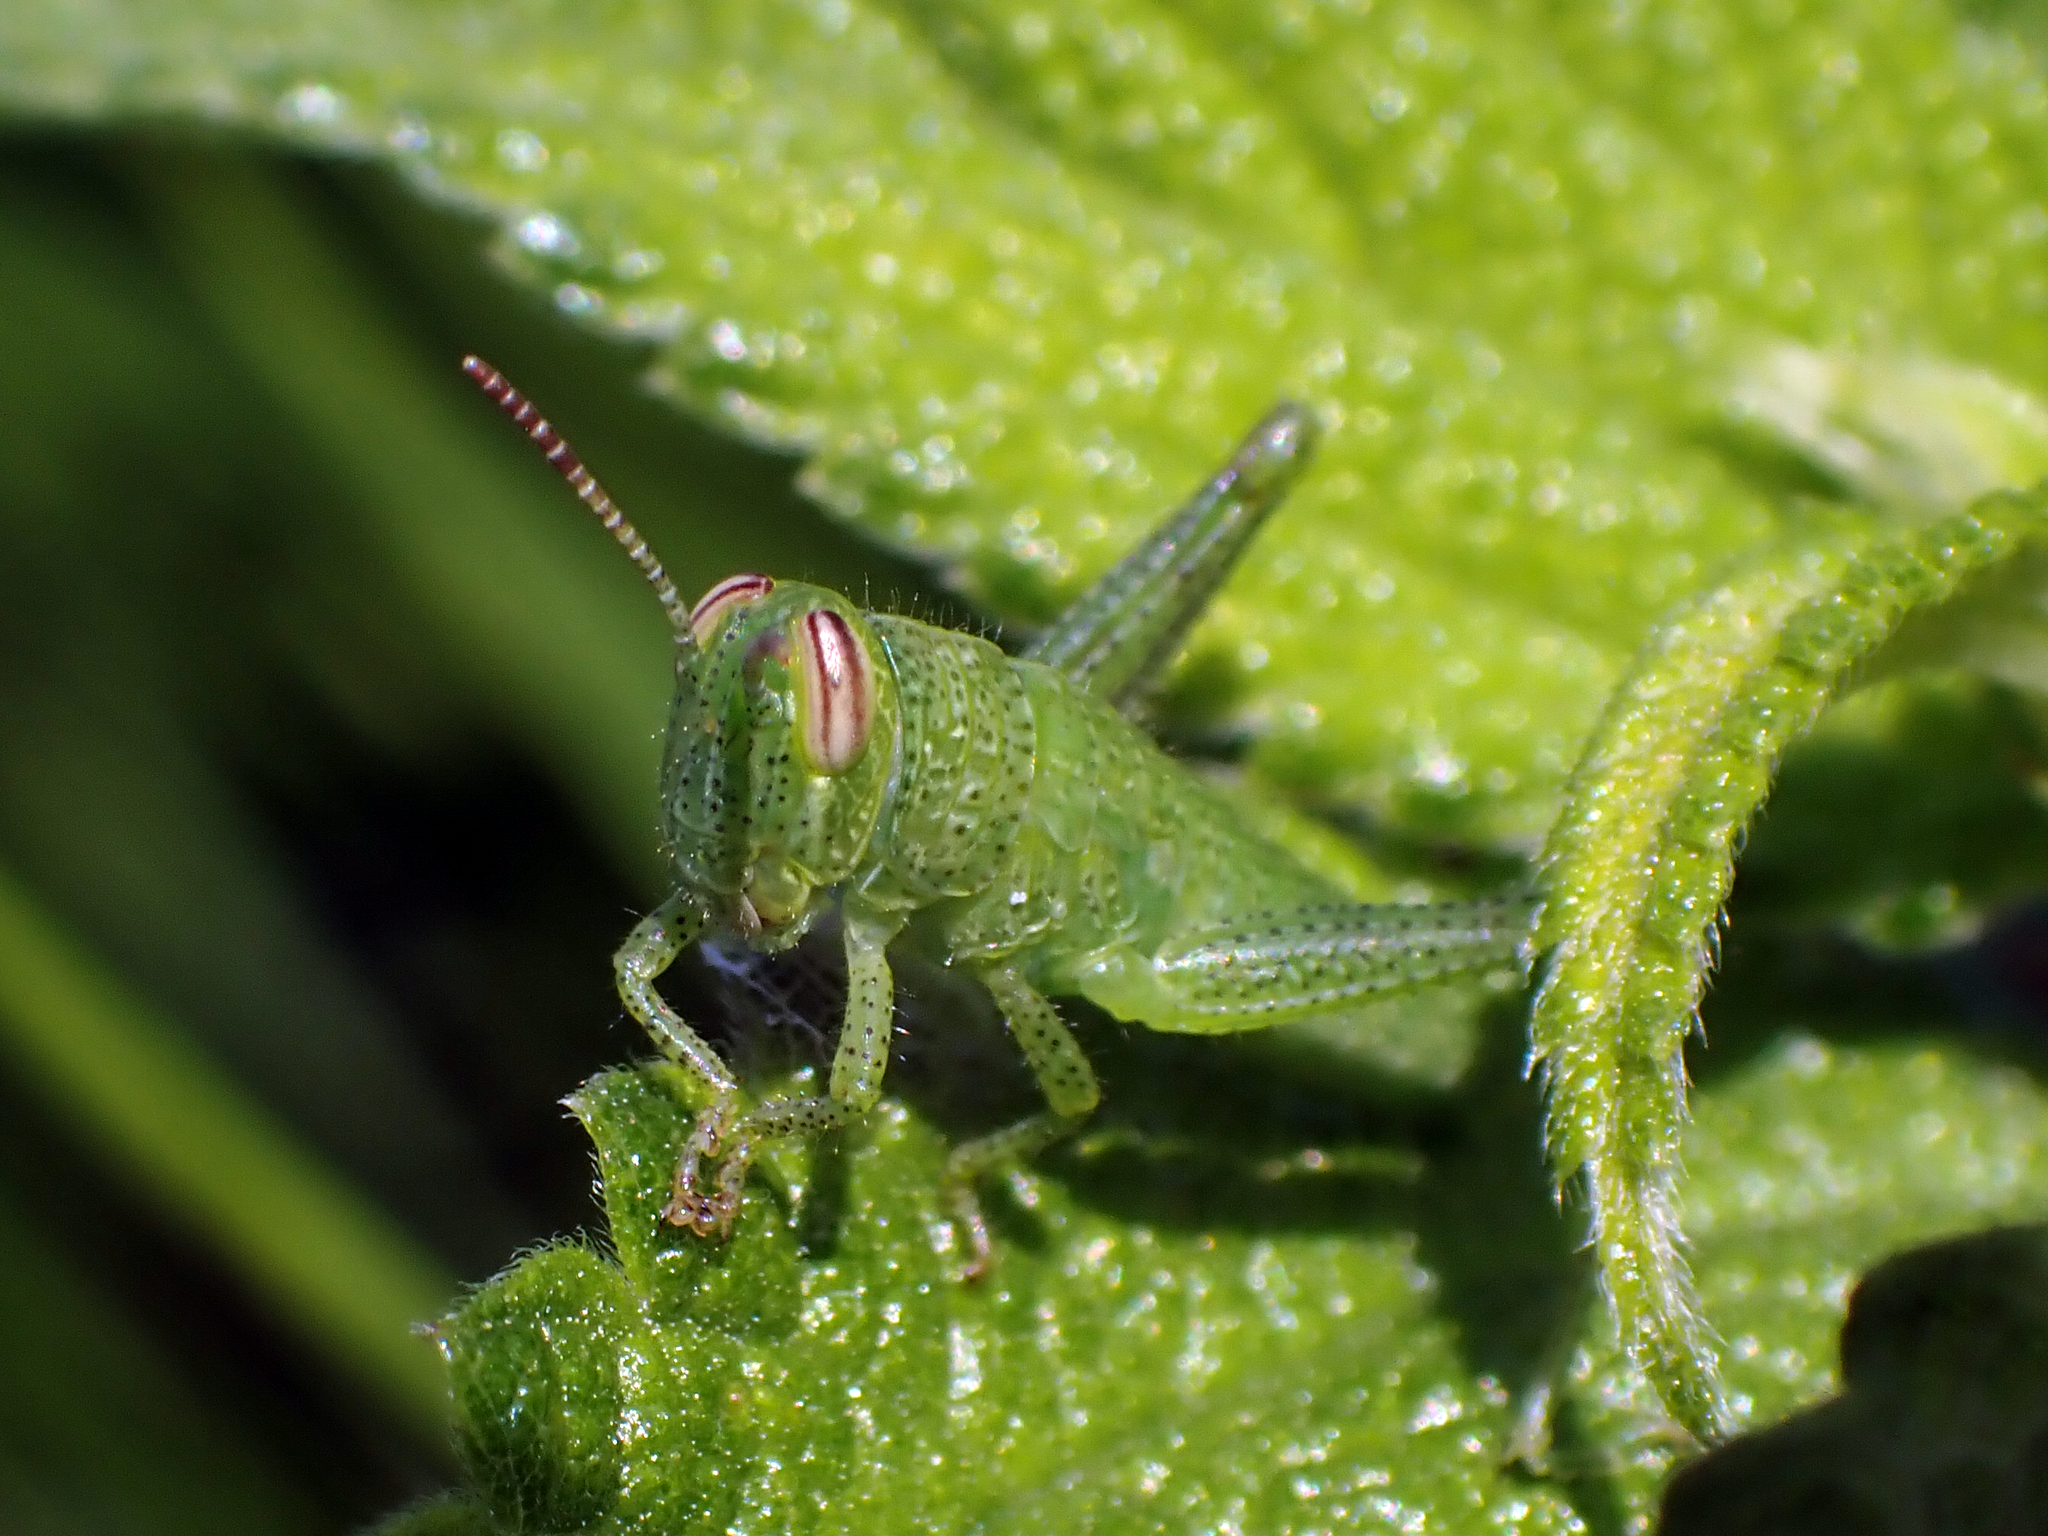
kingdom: Animalia
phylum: Arthropoda
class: Insecta
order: Orthoptera
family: Acrididae
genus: Schistocerca
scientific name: Schistocerca americana
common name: American bird locust
